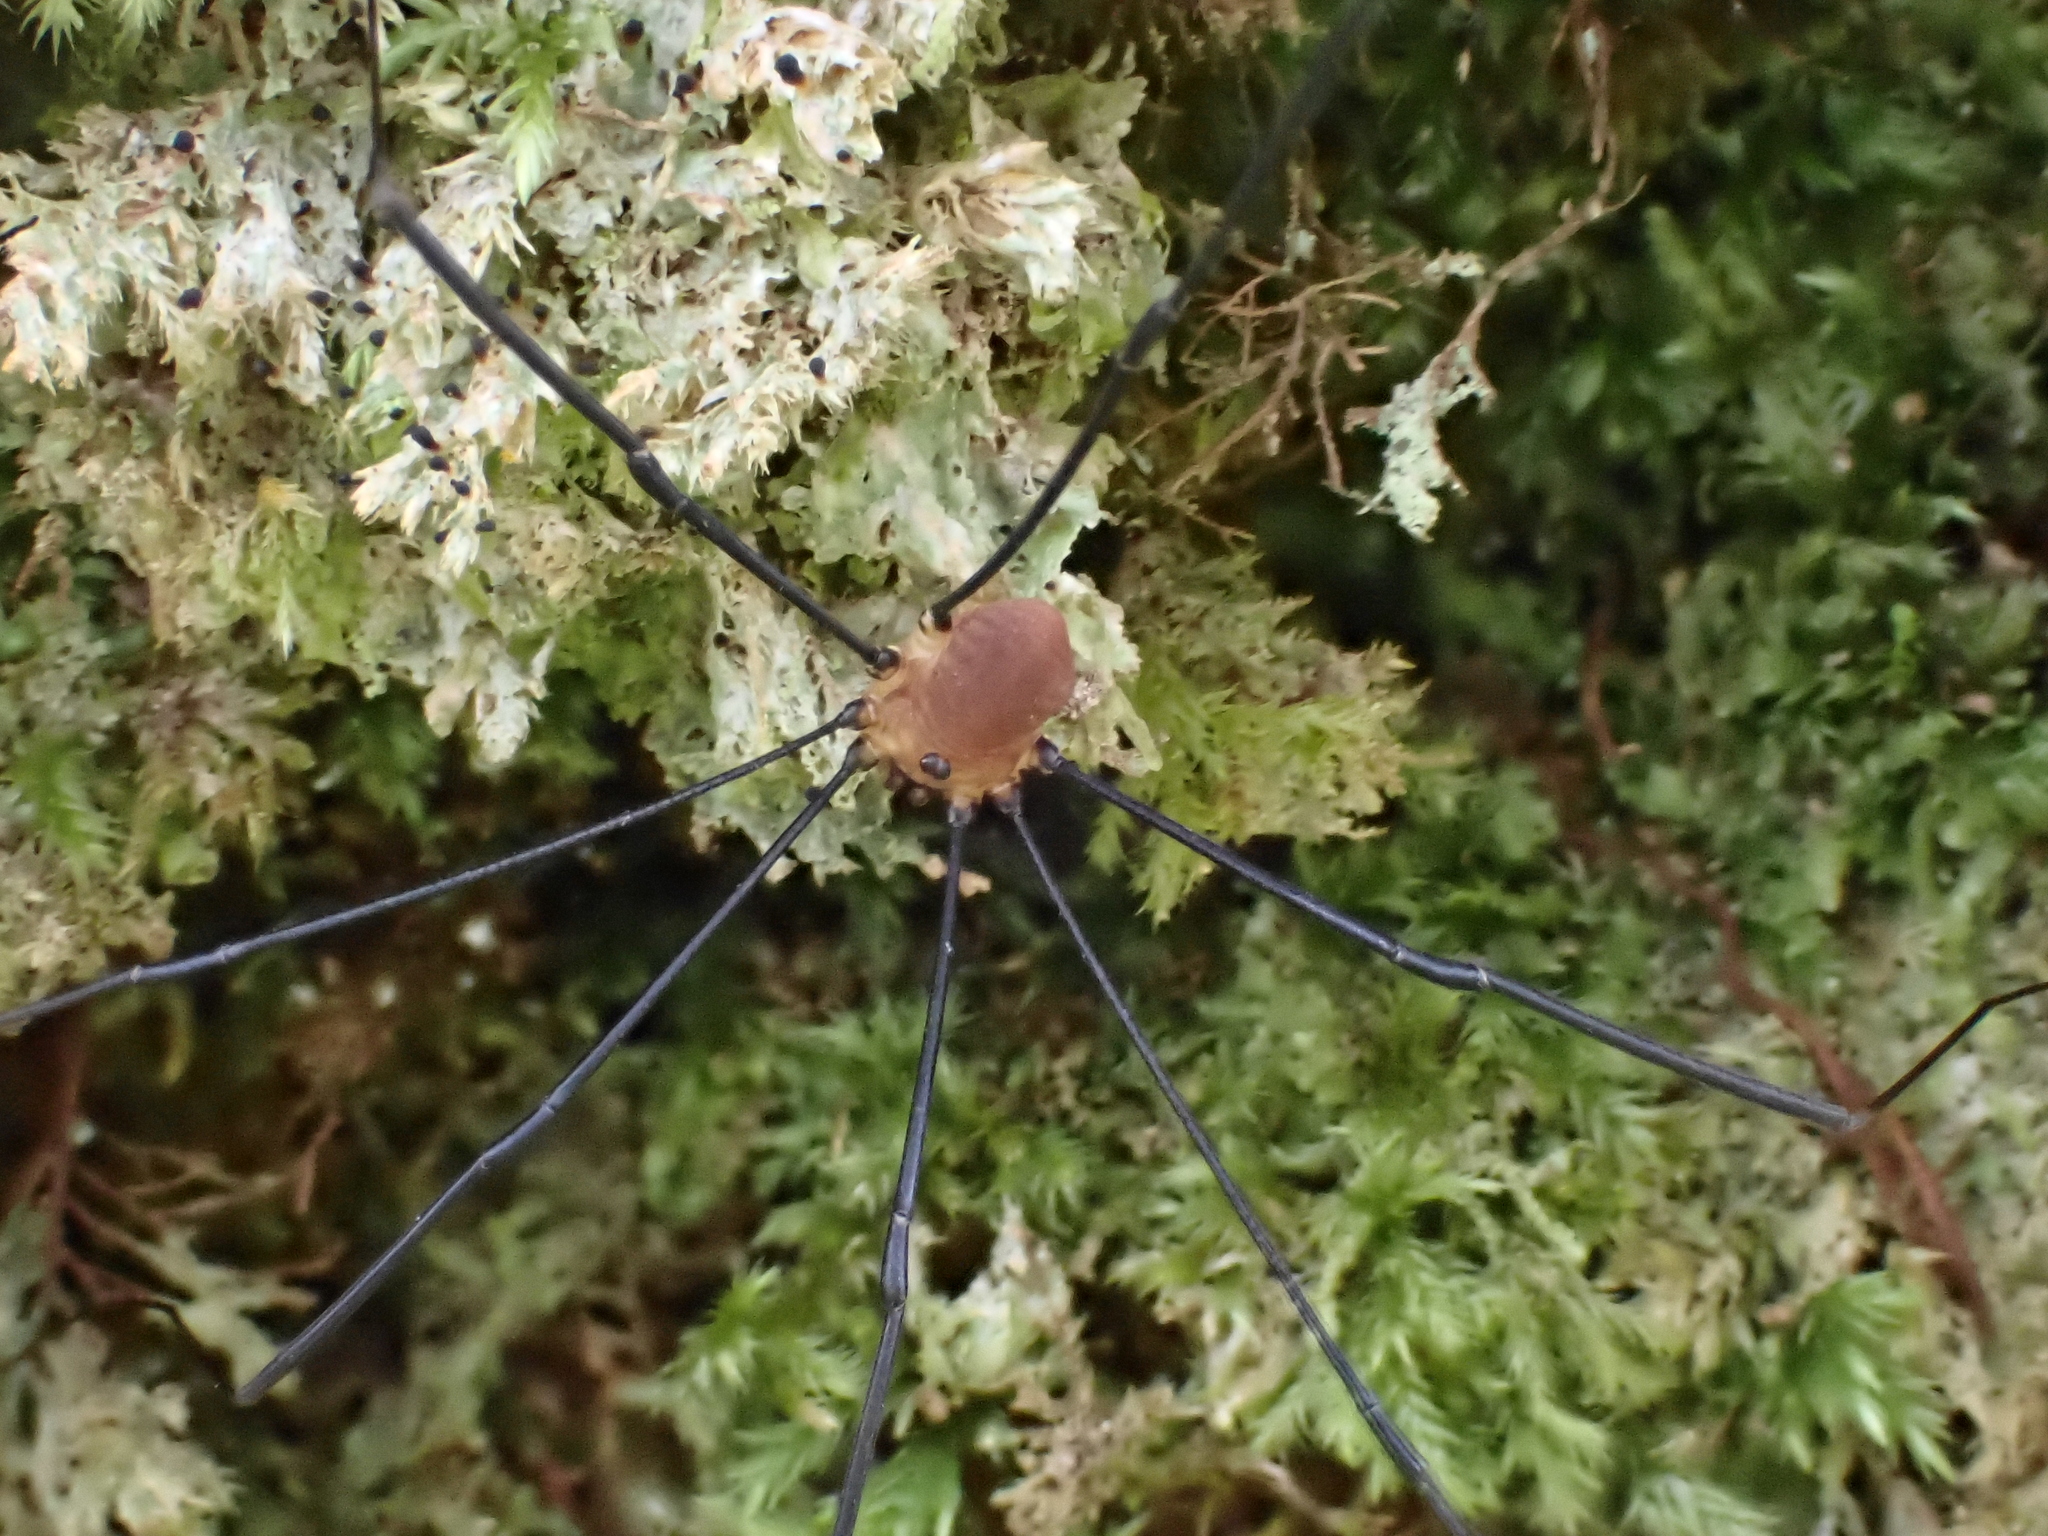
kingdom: Animalia
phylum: Arthropoda
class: Arachnida
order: Opiliones
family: Sclerosomatidae
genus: Leiobunum
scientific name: Leiobunum rotundum
